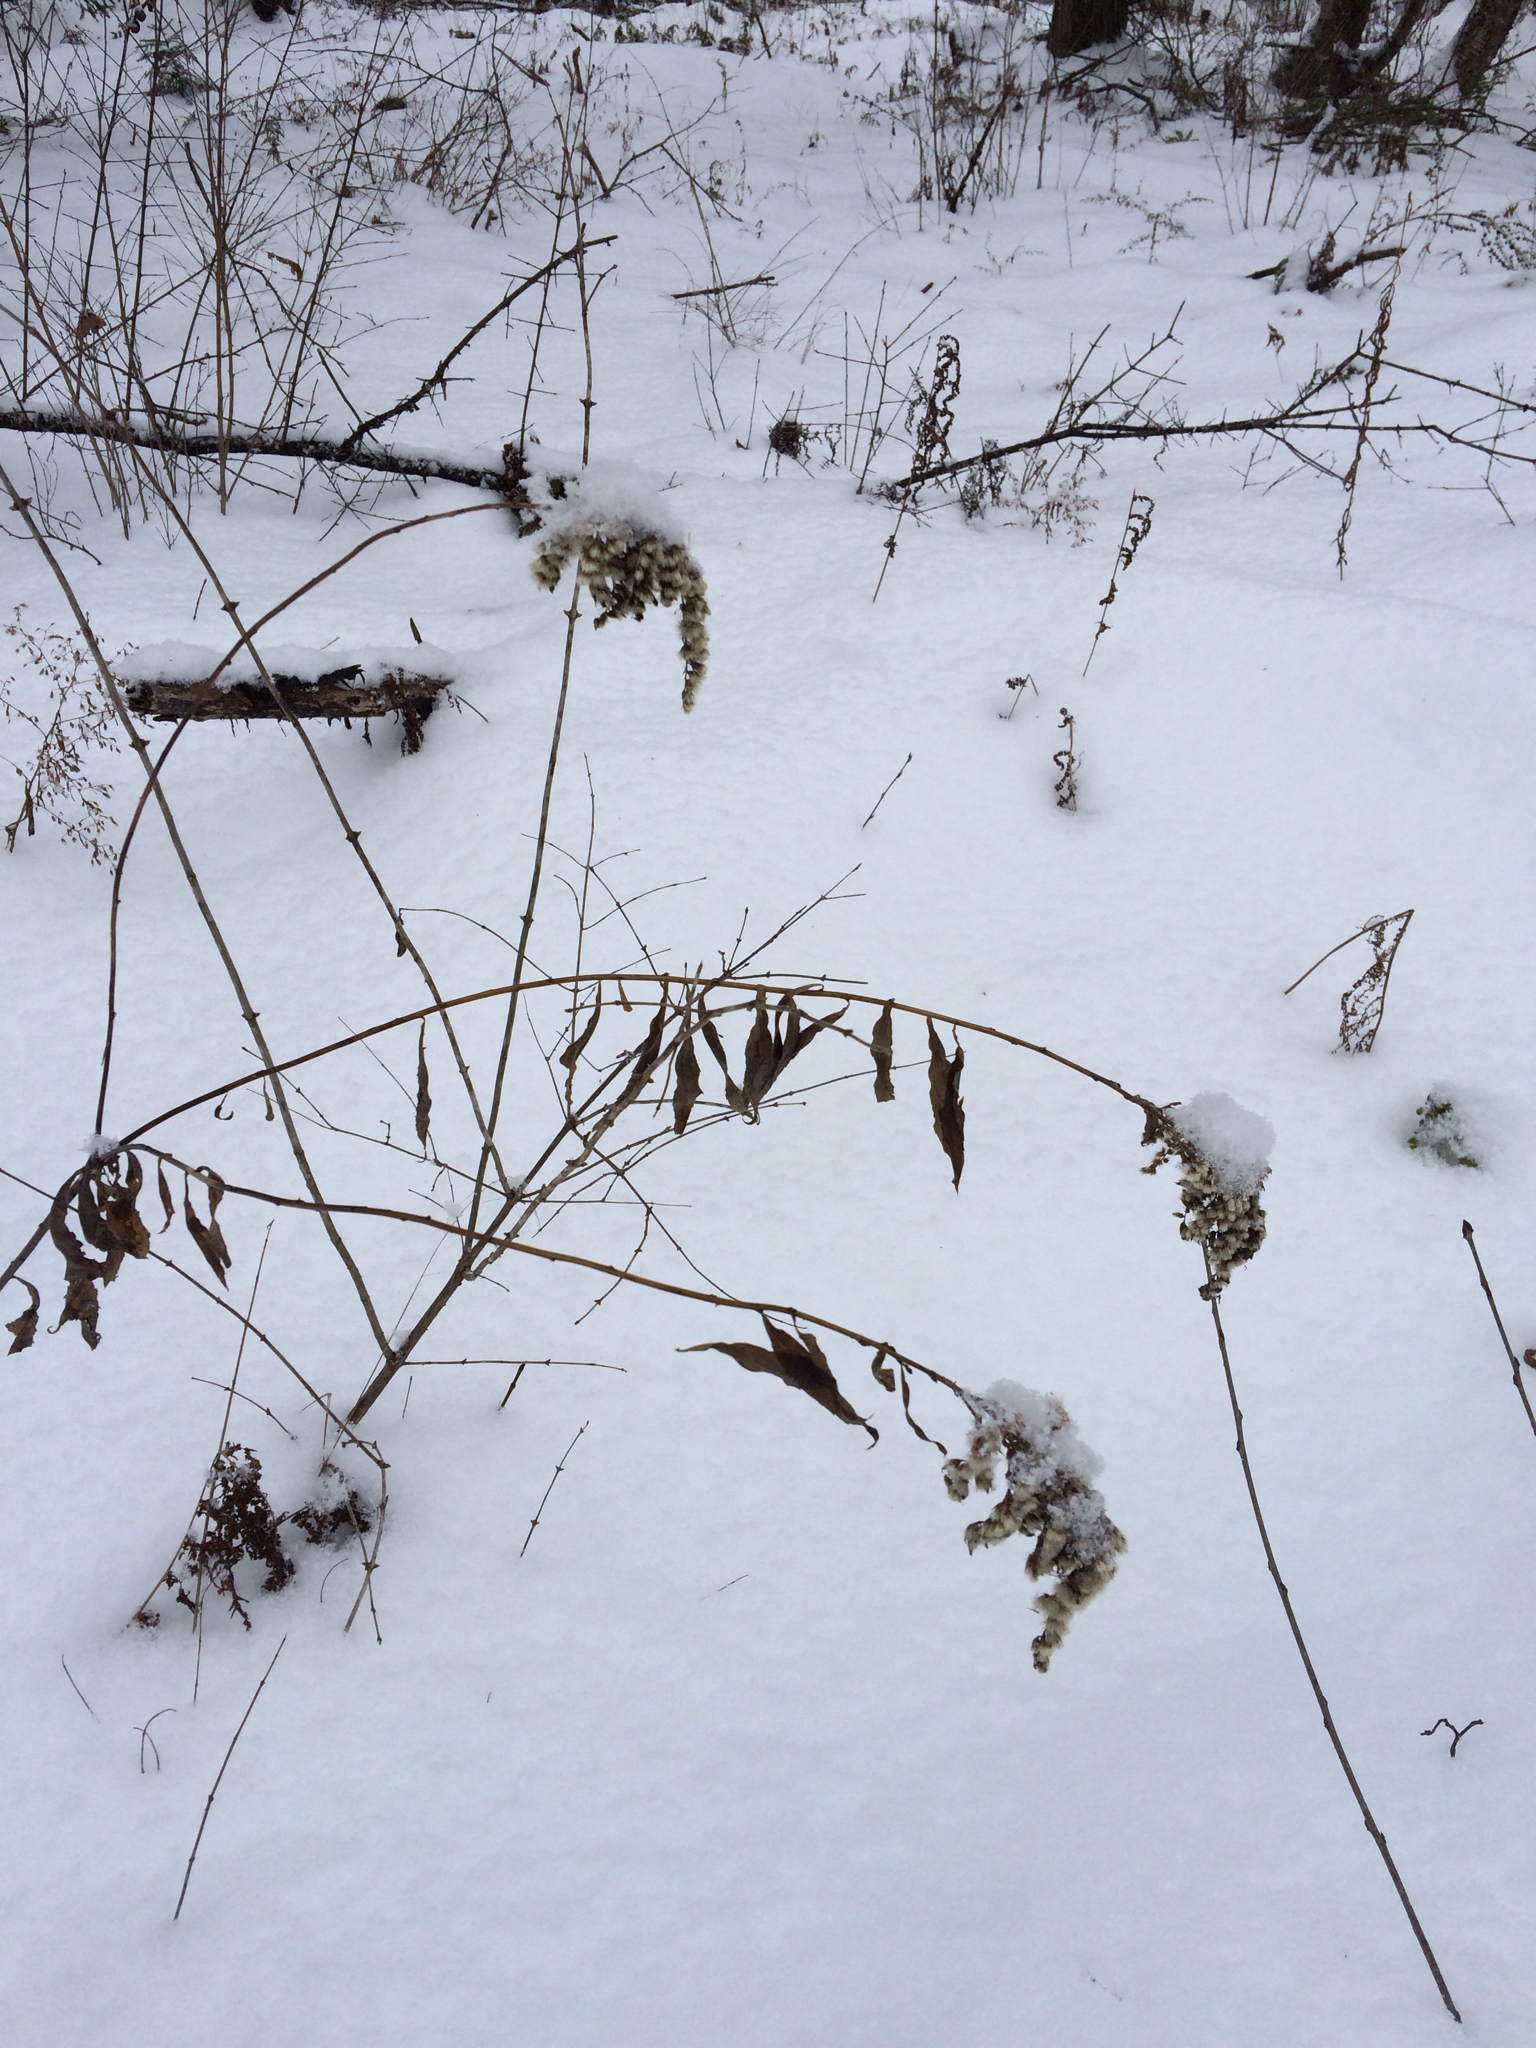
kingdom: Plantae
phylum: Tracheophyta
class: Magnoliopsida
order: Asterales
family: Asteraceae
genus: Solidago
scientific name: Solidago
